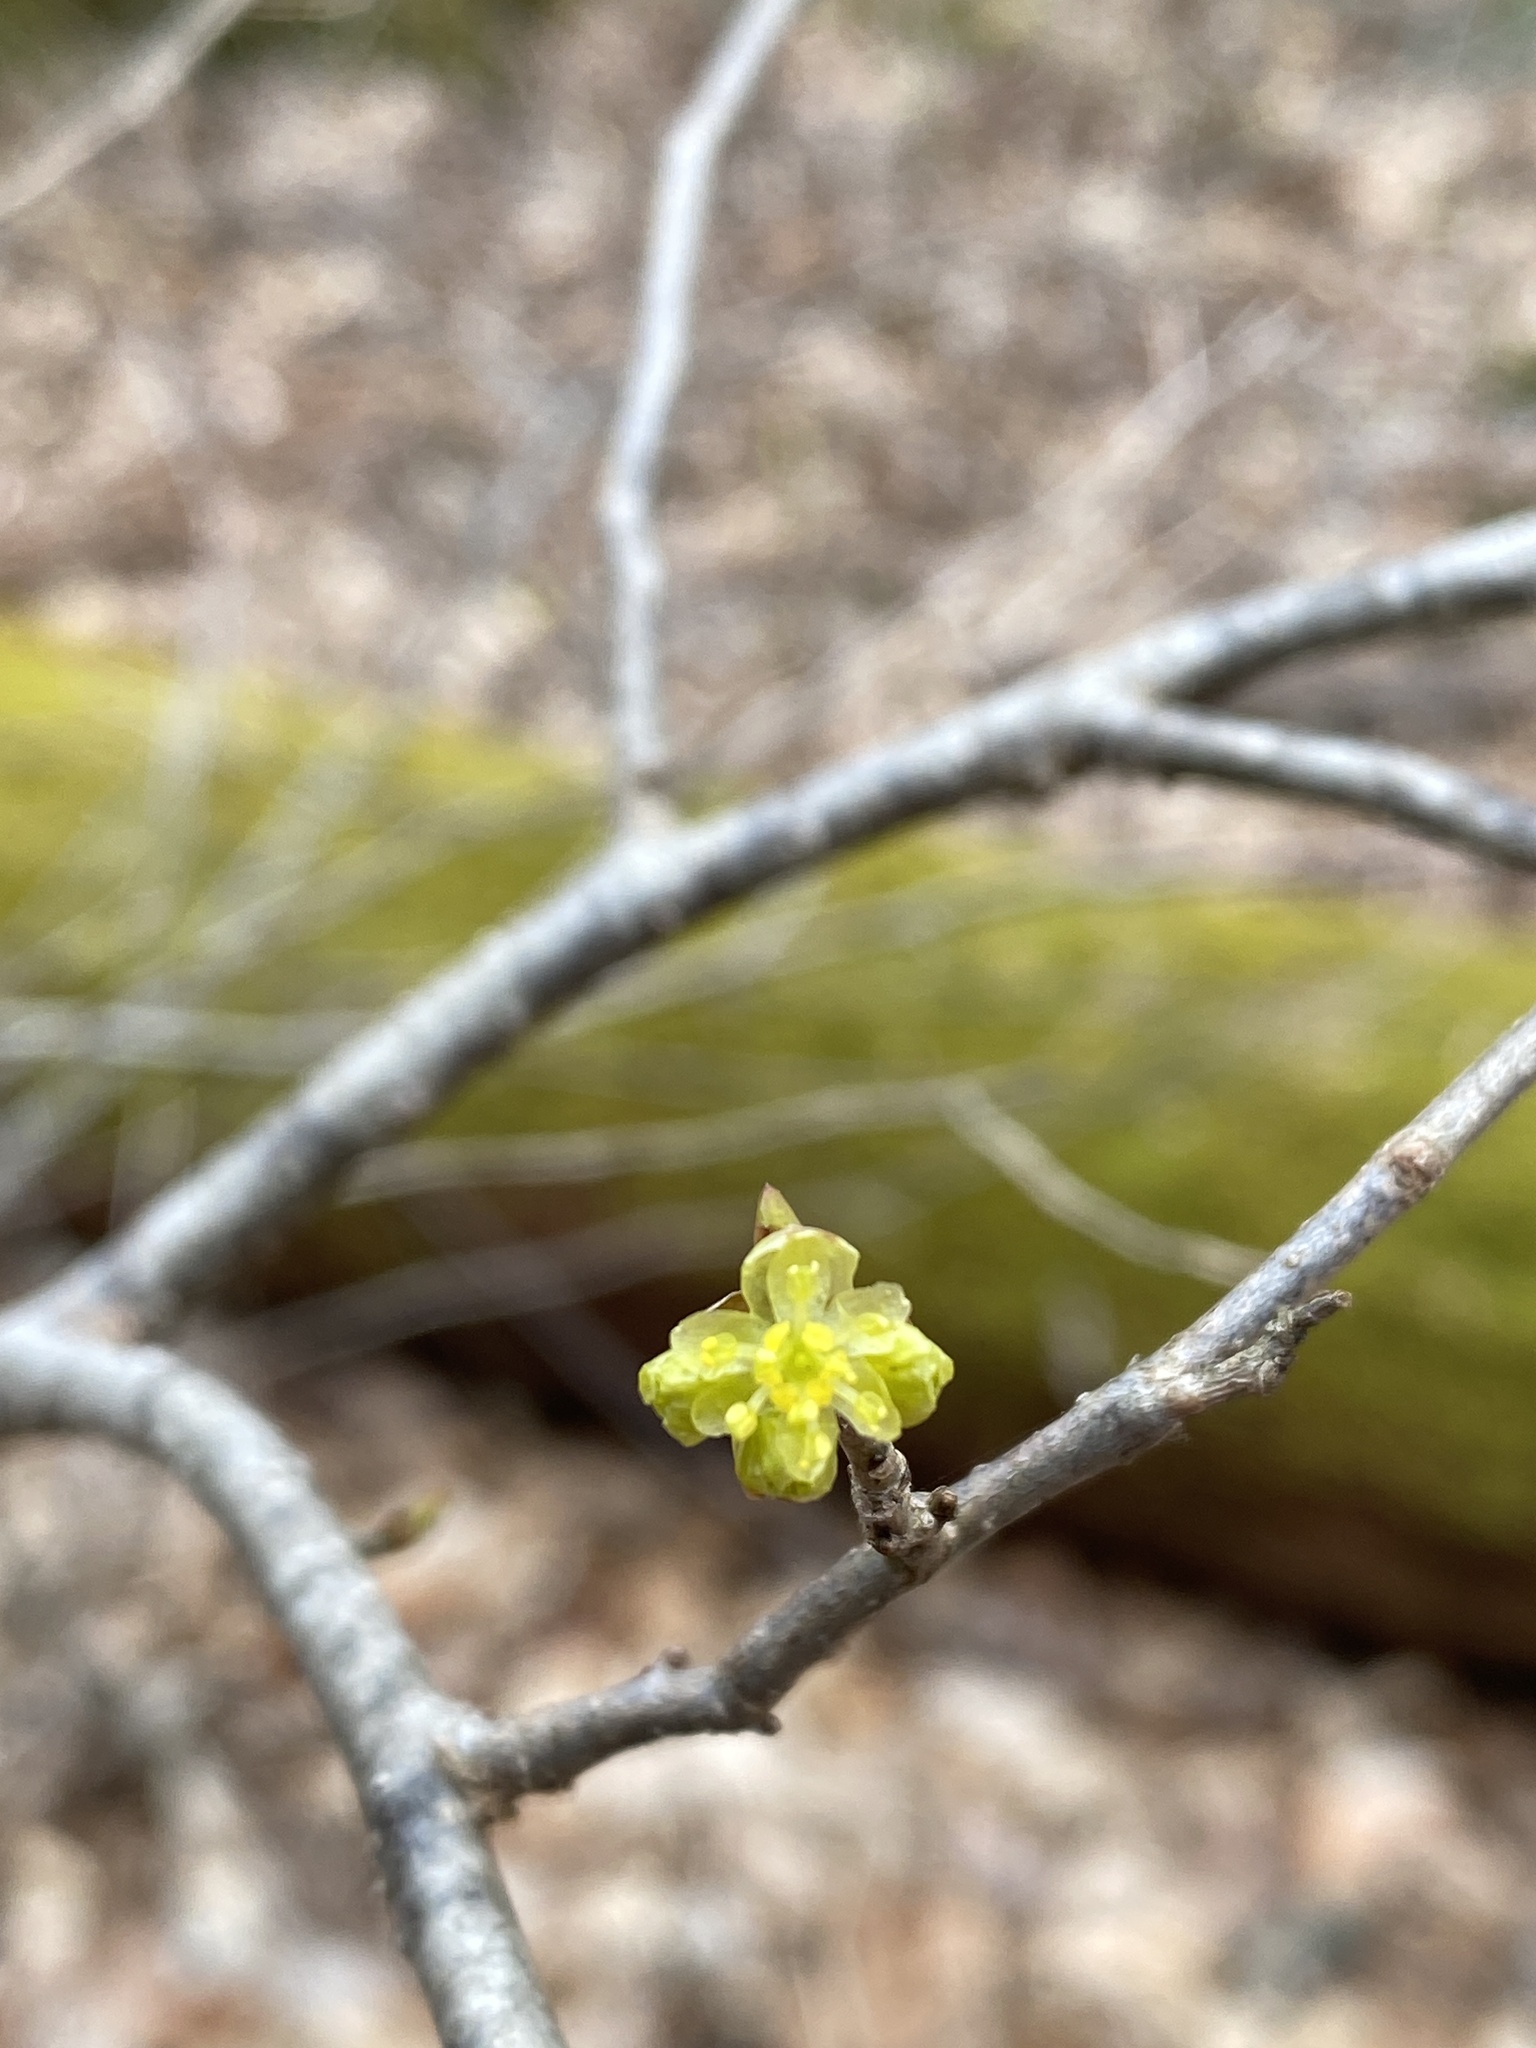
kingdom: Plantae
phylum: Tracheophyta
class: Magnoliopsida
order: Laurales
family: Lauraceae
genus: Lindera
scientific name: Lindera benzoin
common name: Spicebush
